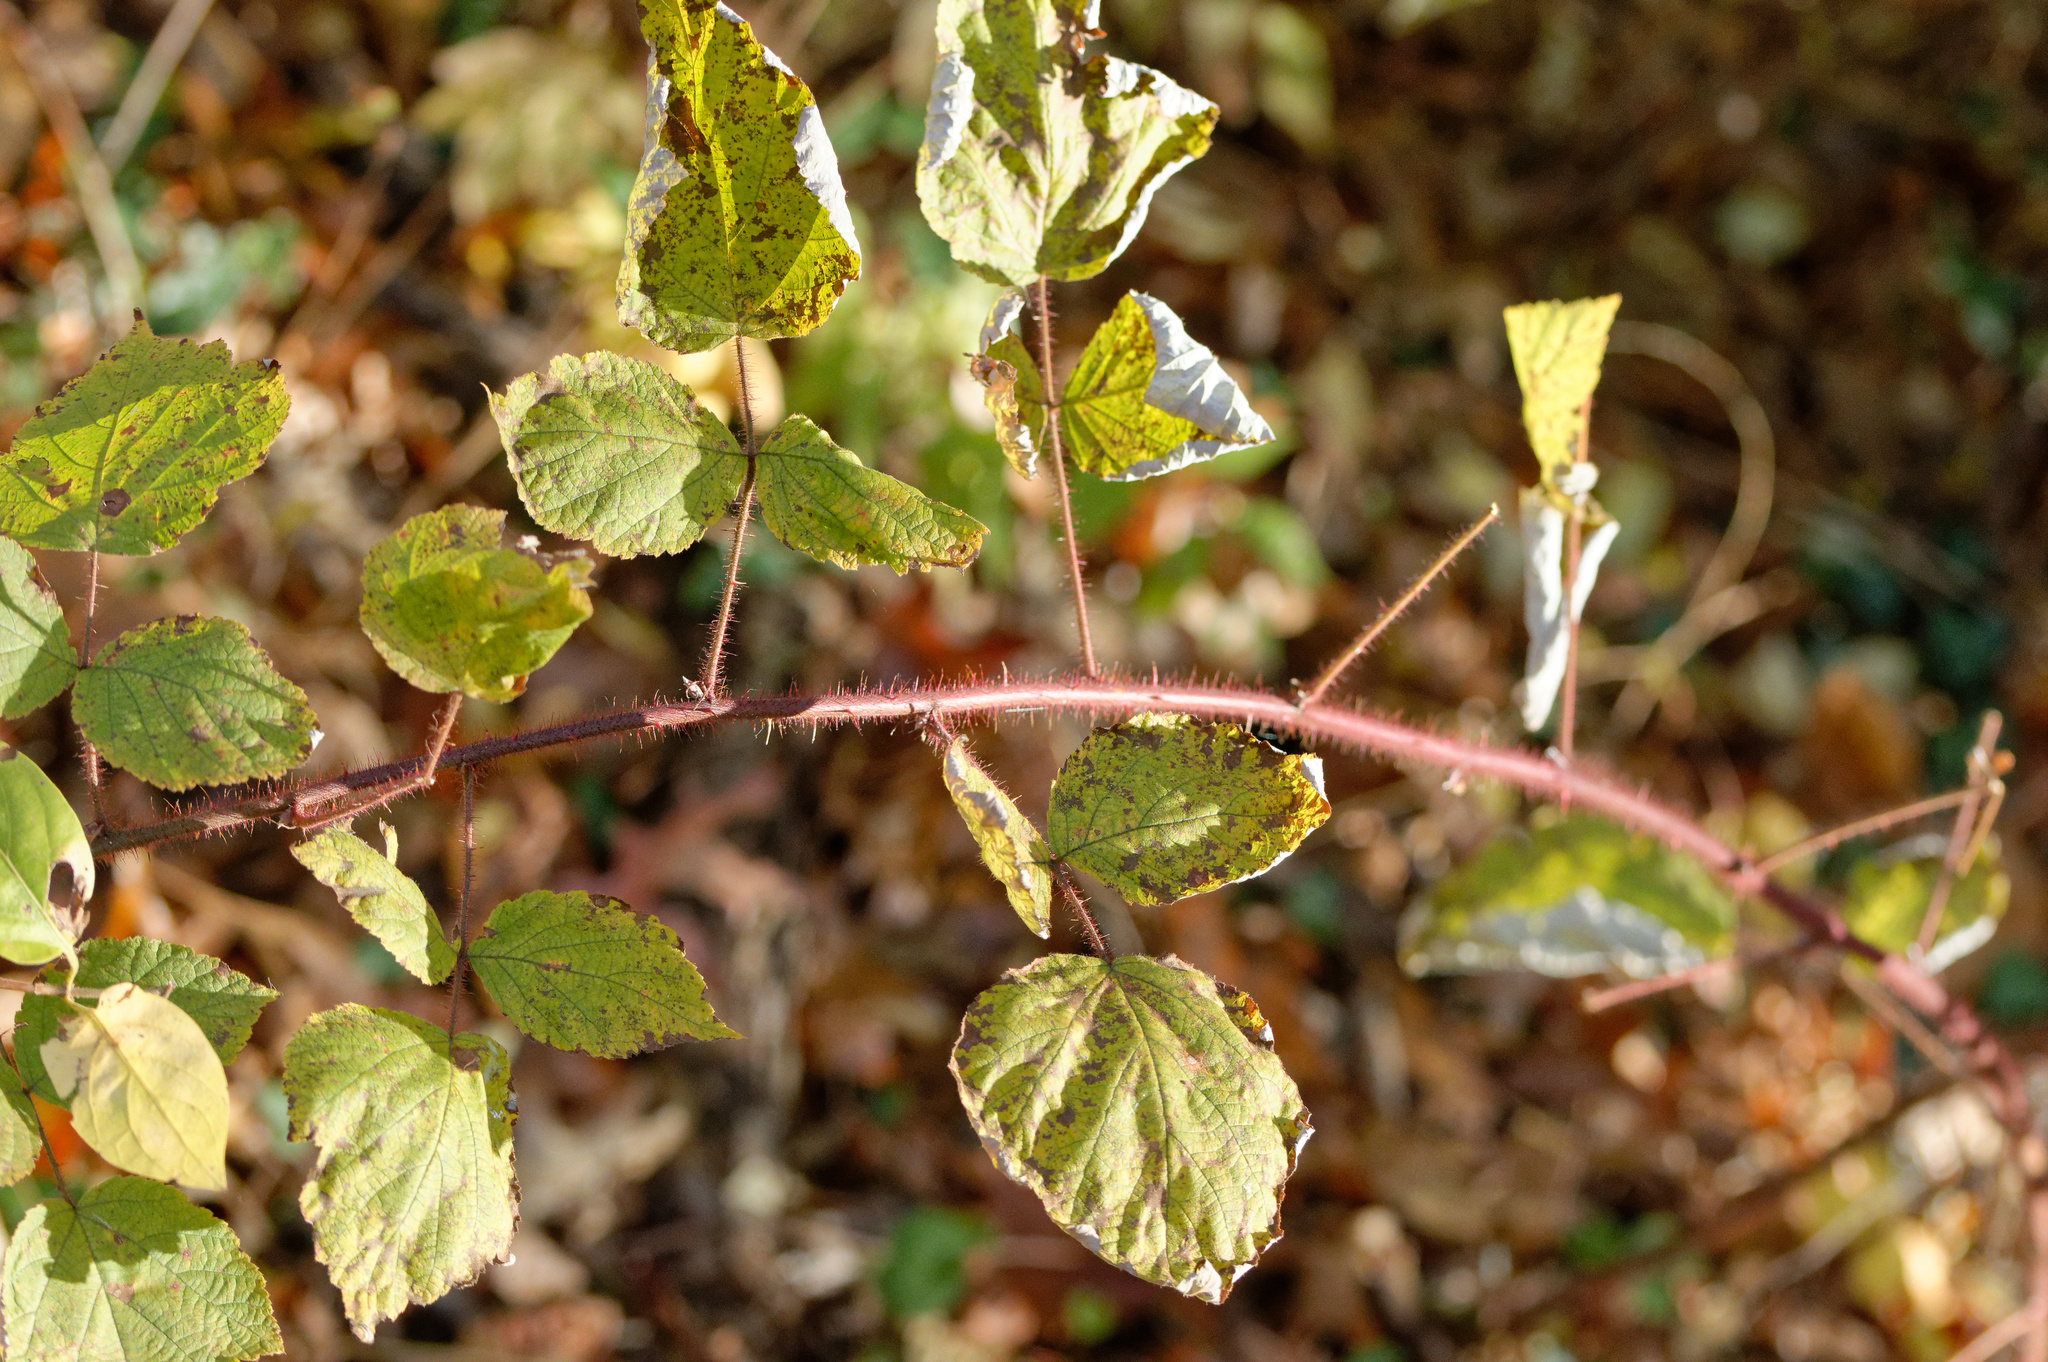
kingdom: Plantae
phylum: Tracheophyta
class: Magnoliopsida
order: Rosales
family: Rosaceae
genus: Rubus
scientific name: Rubus phoenicolasius
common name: Japanese wineberry
